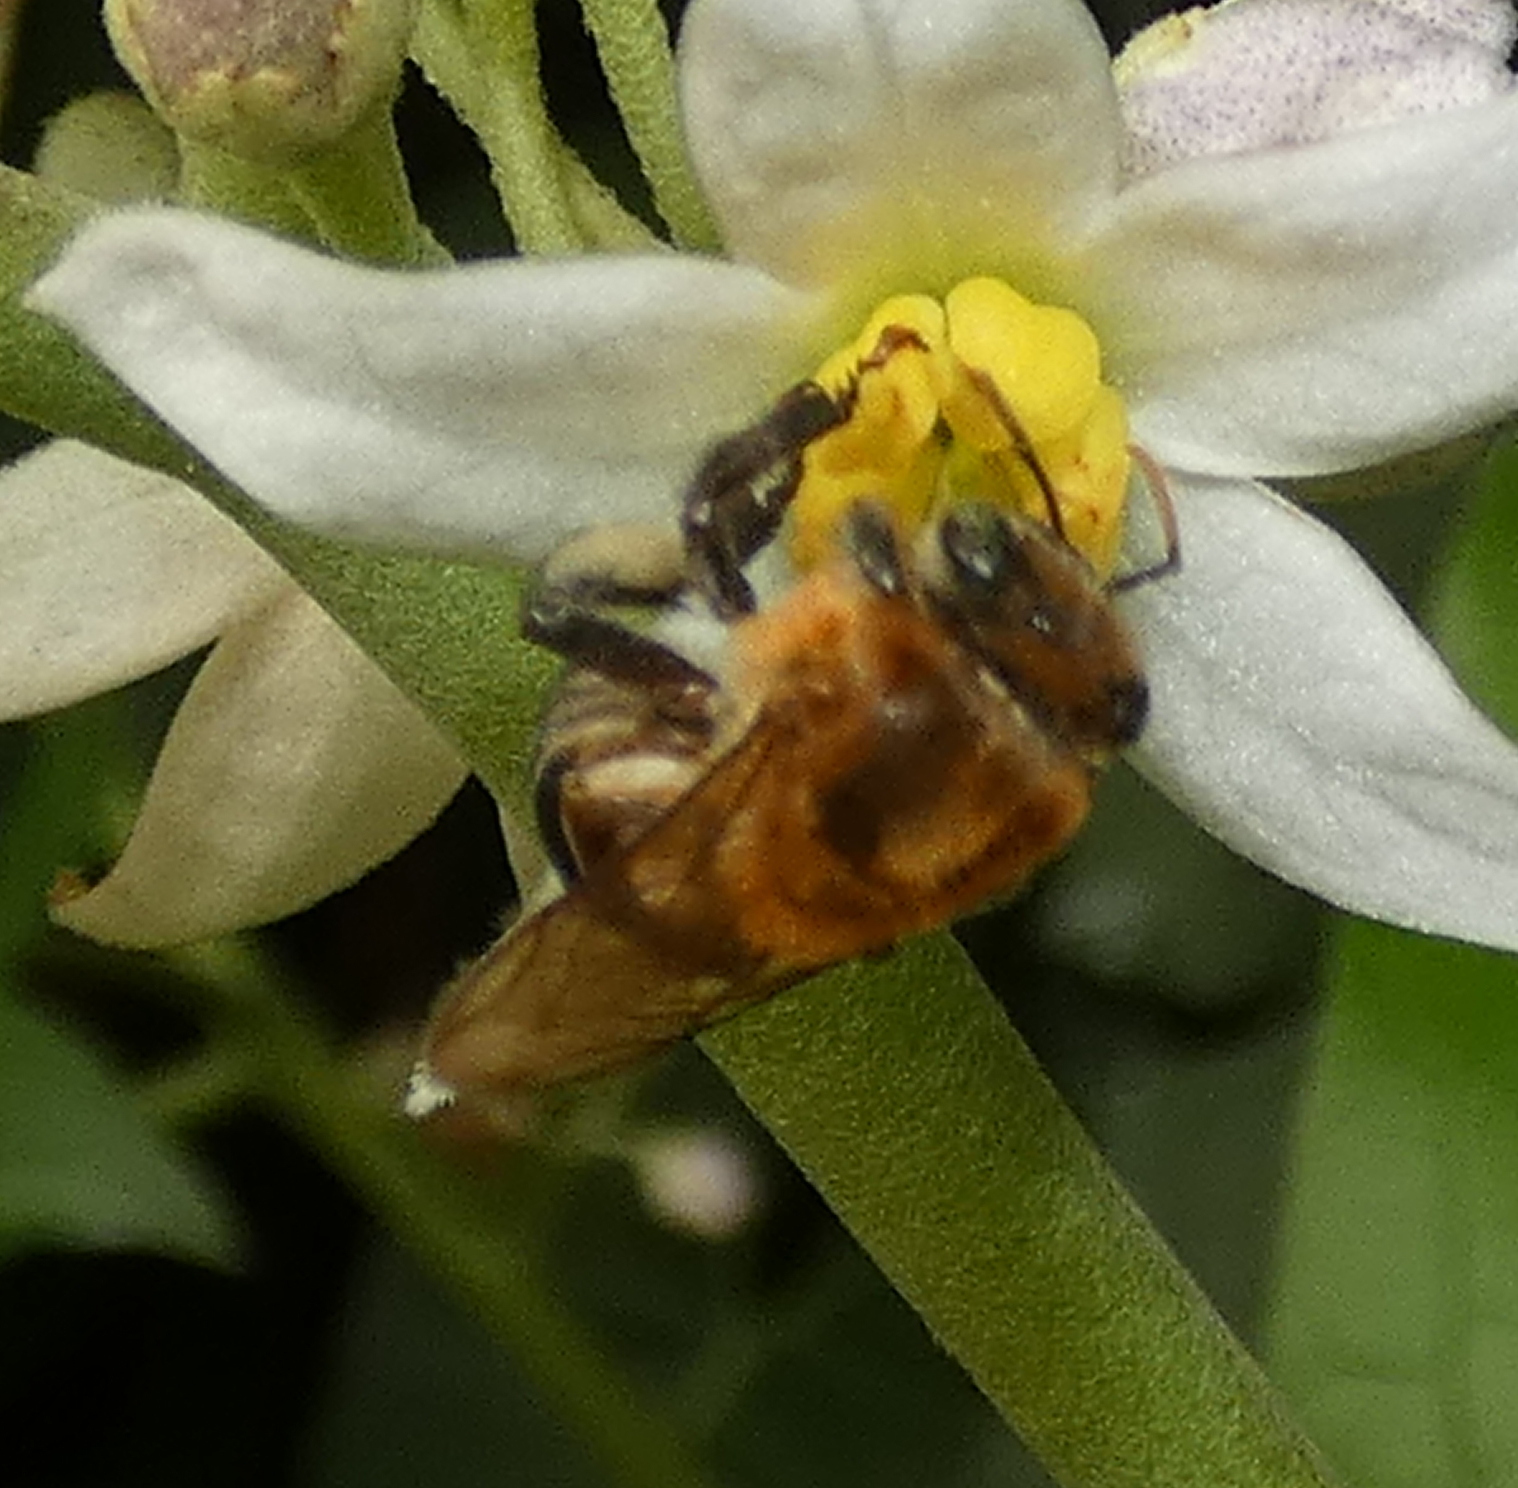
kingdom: Animalia
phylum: Arthropoda
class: Insecta
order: Hymenoptera
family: Apidae
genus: Melipona
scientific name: Melipona scutellaris
